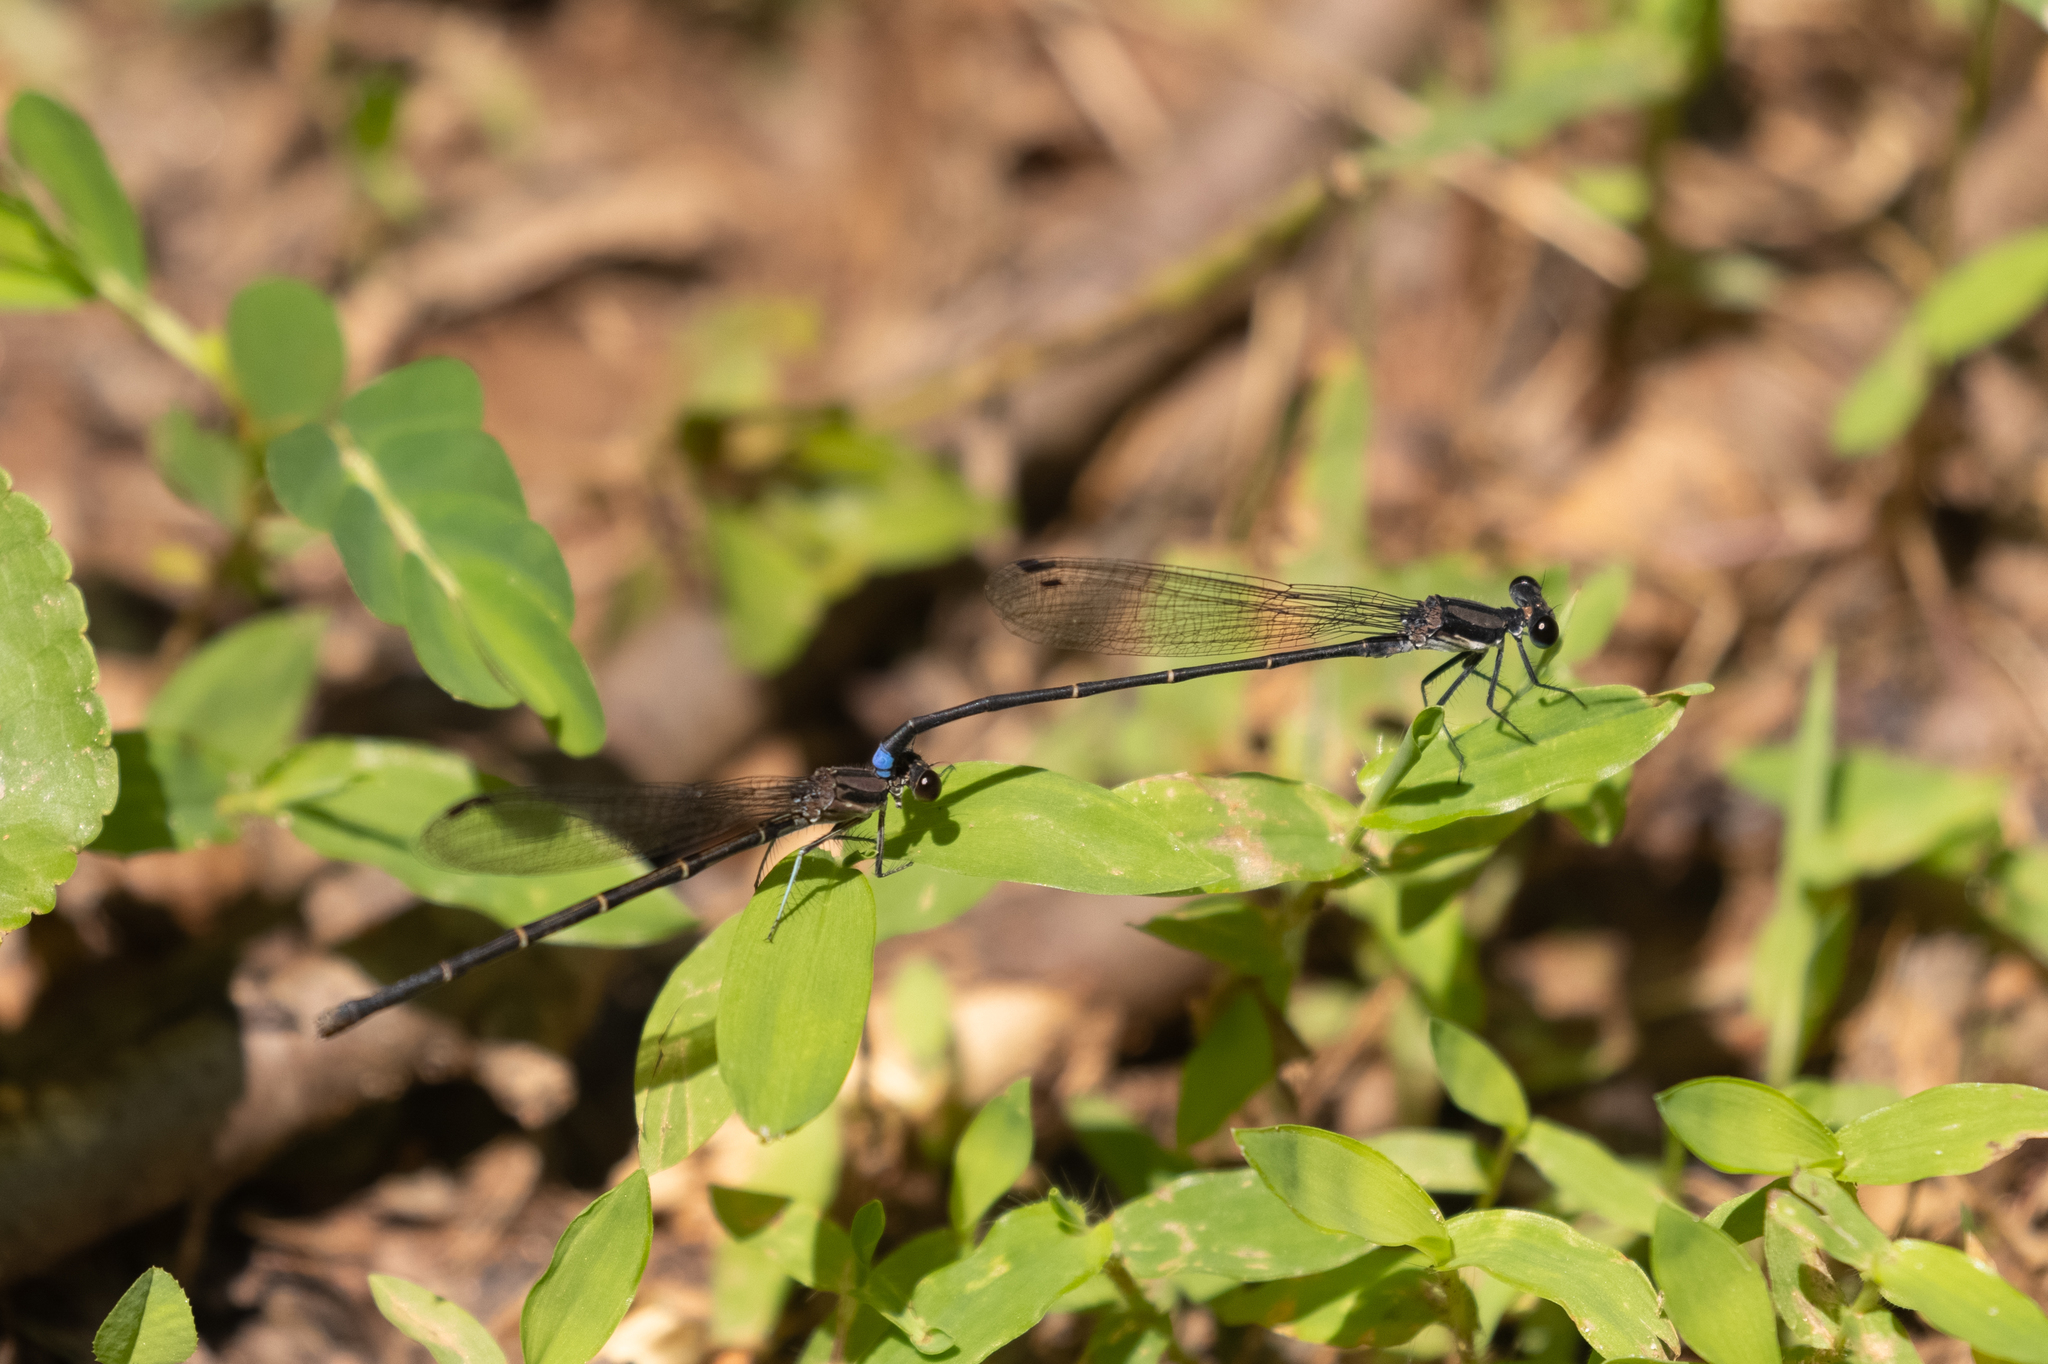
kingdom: Animalia
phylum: Arthropoda
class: Insecta
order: Odonata
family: Coenagrionidae
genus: Argia
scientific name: Argia tibialis
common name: Blue-tipped dancer
